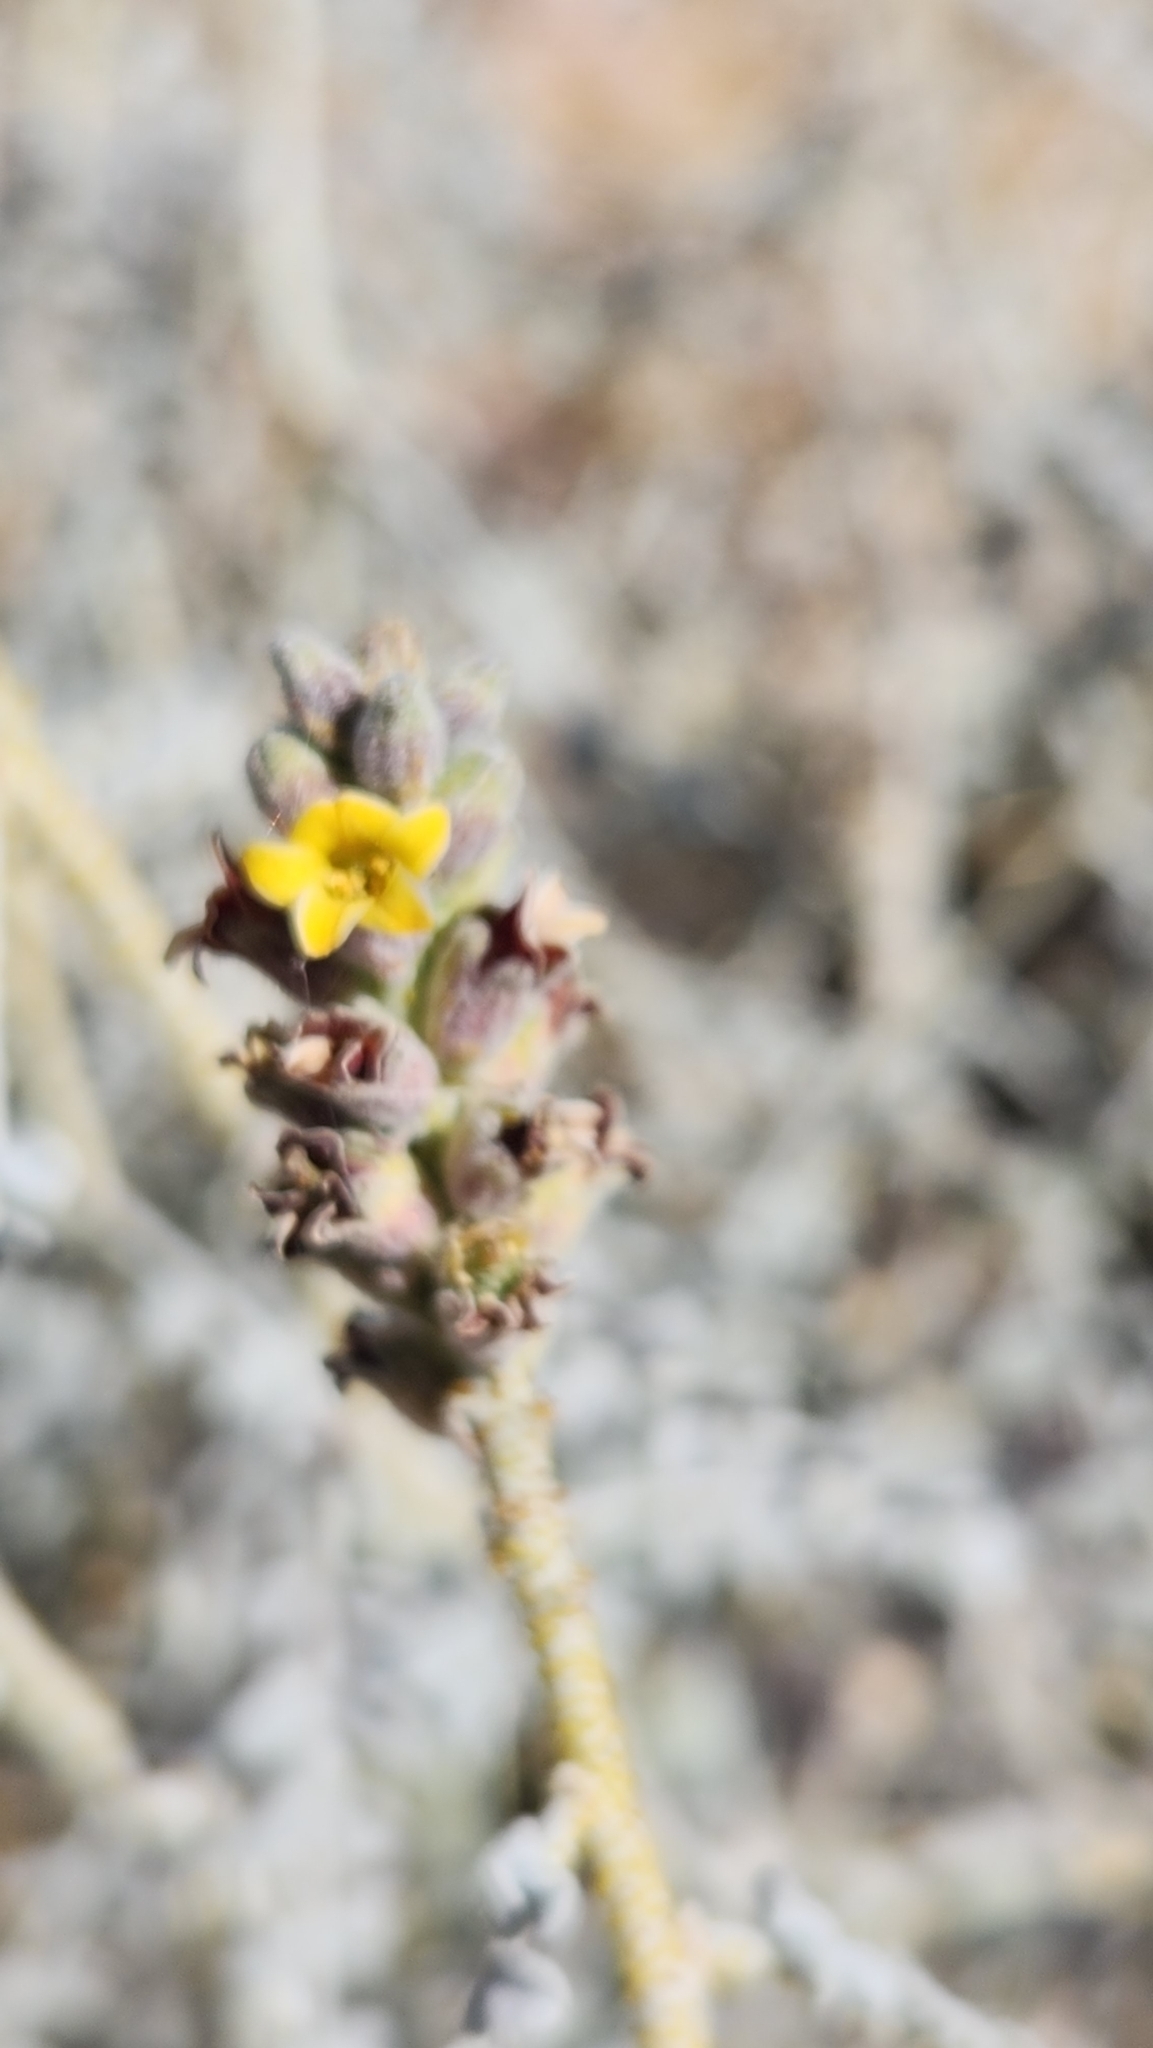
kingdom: Plantae
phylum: Tracheophyta
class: Magnoliopsida
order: Fabales
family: Fabaceae
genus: Errazurizia
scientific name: Errazurizia megacarpa
